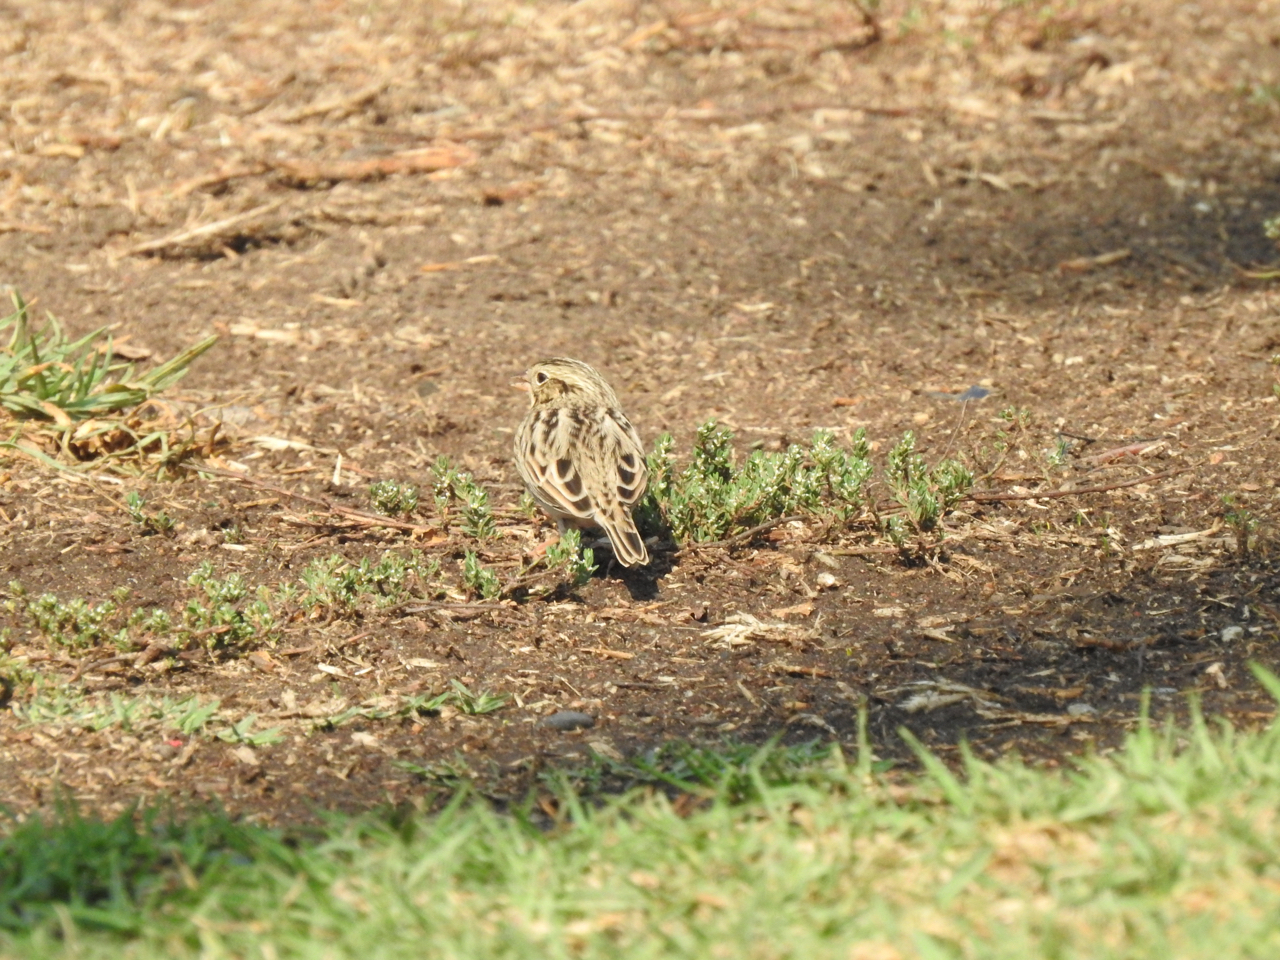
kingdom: Animalia
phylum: Chordata
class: Aves
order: Passeriformes
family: Passerellidae
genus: Passerculus
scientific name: Passerculus sandwichensis
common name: Savannah sparrow
